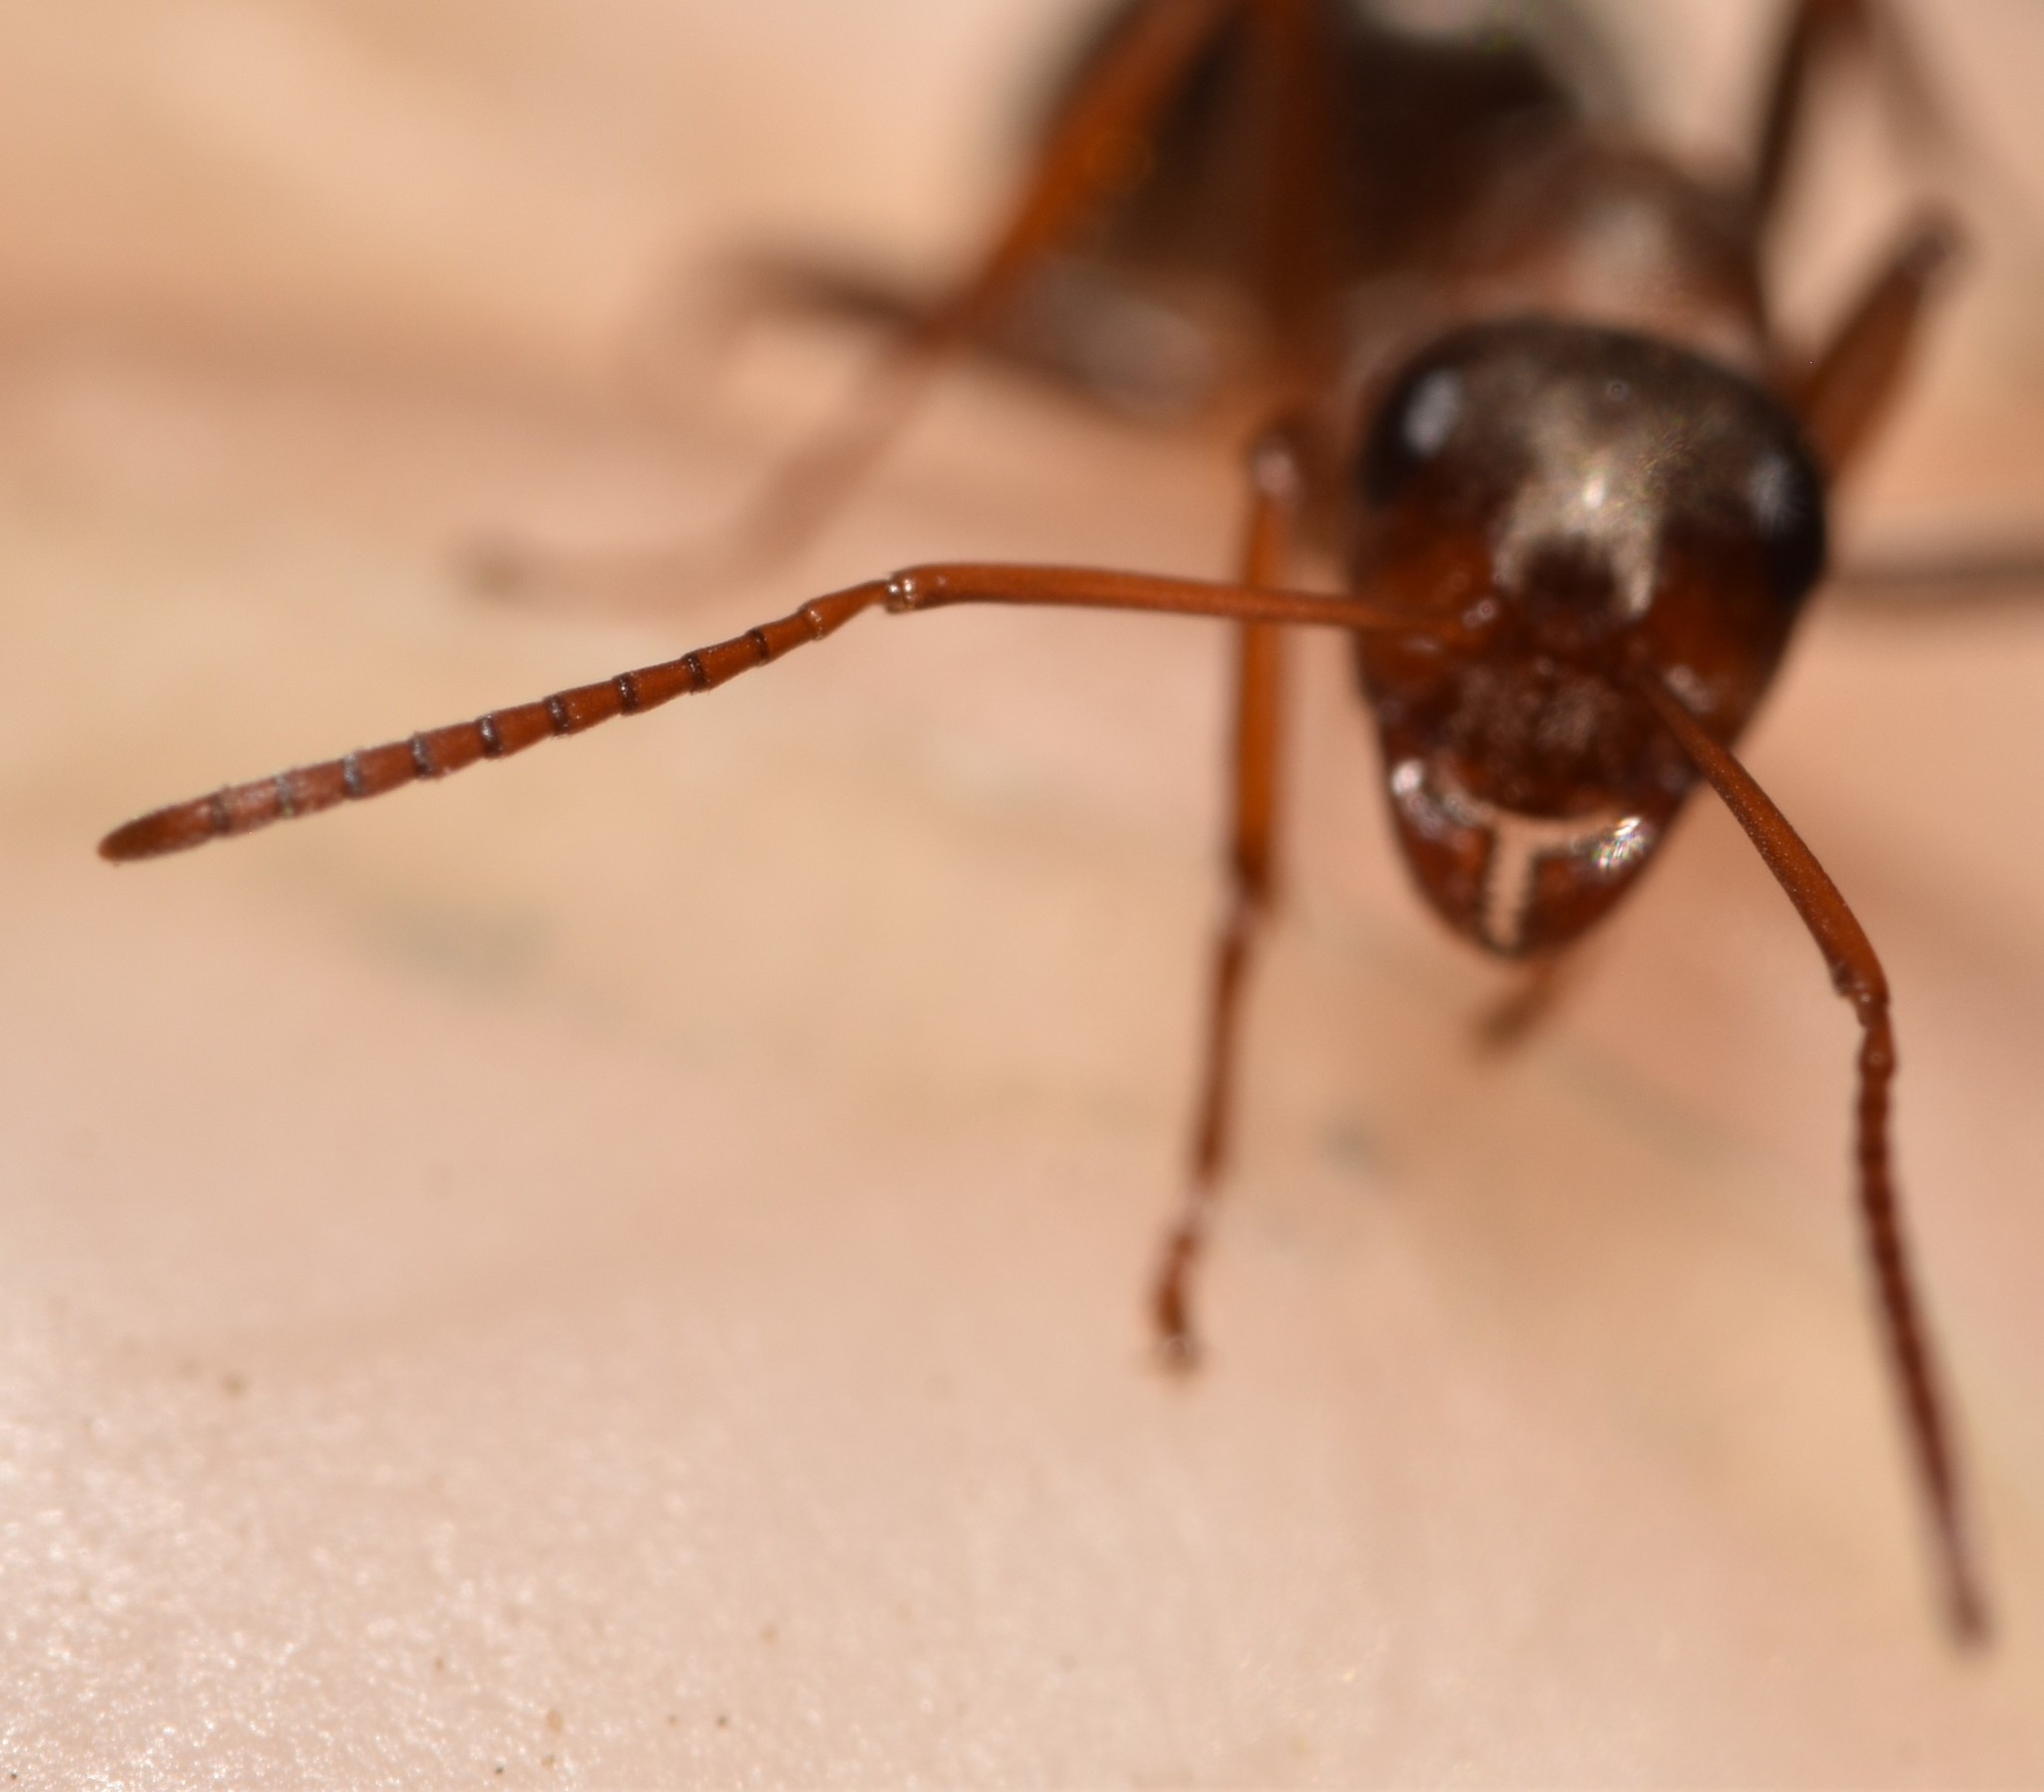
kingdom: Animalia
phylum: Arthropoda
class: Insecta
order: Hymenoptera
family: Formicidae
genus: Formica
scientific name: Formica gnava
